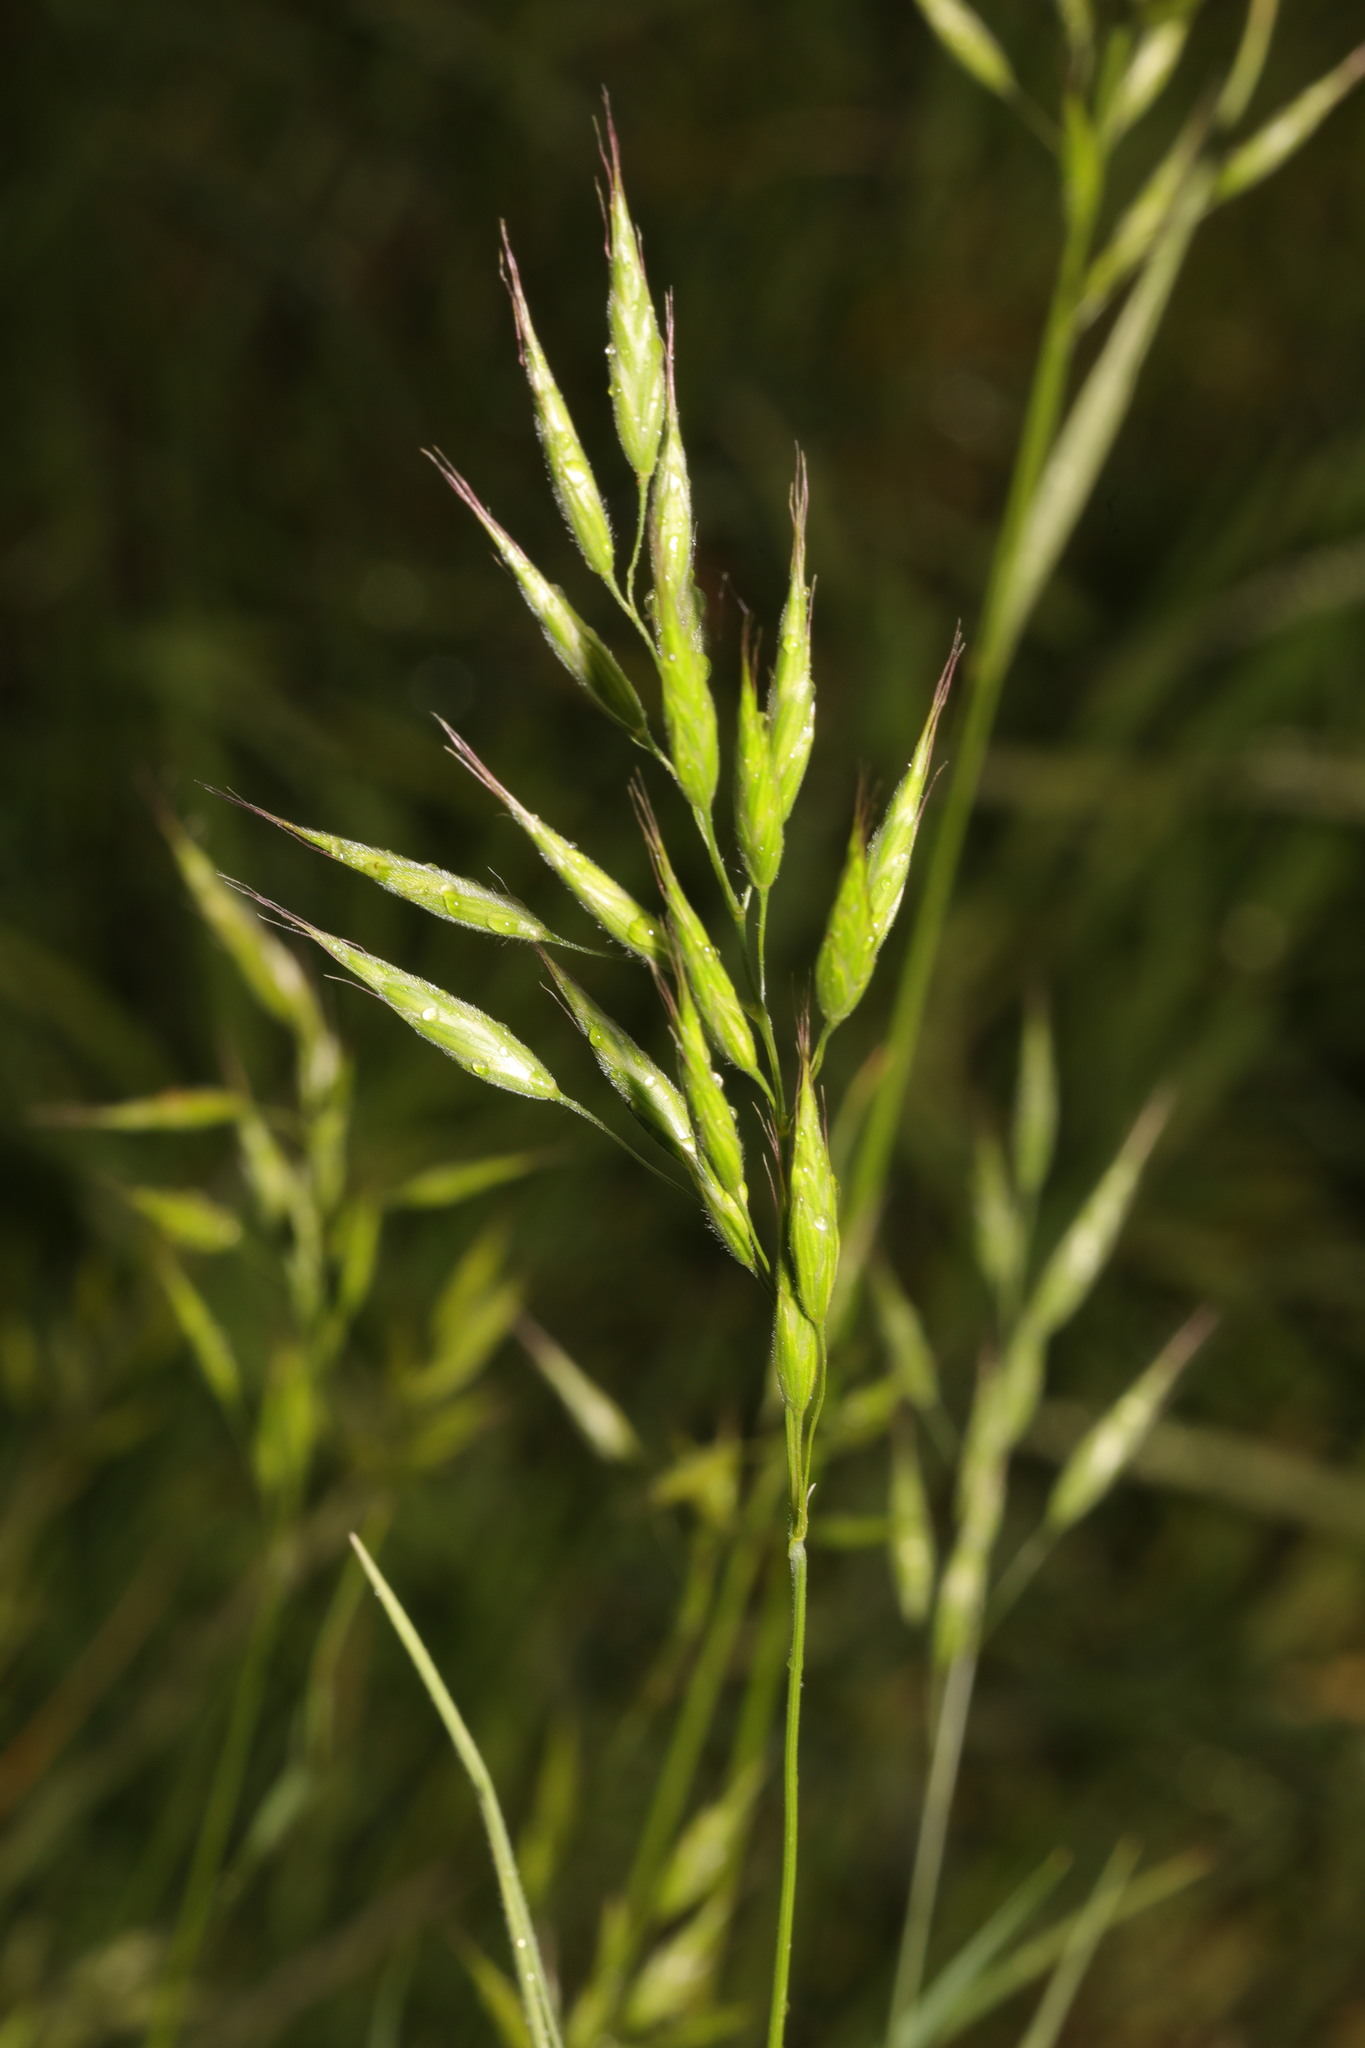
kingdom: Plantae
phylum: Tracheophyta
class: Liliopsida
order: Poales
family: Poaceae
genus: Bromus
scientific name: Bromus hordeaceus
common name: Soft brome
